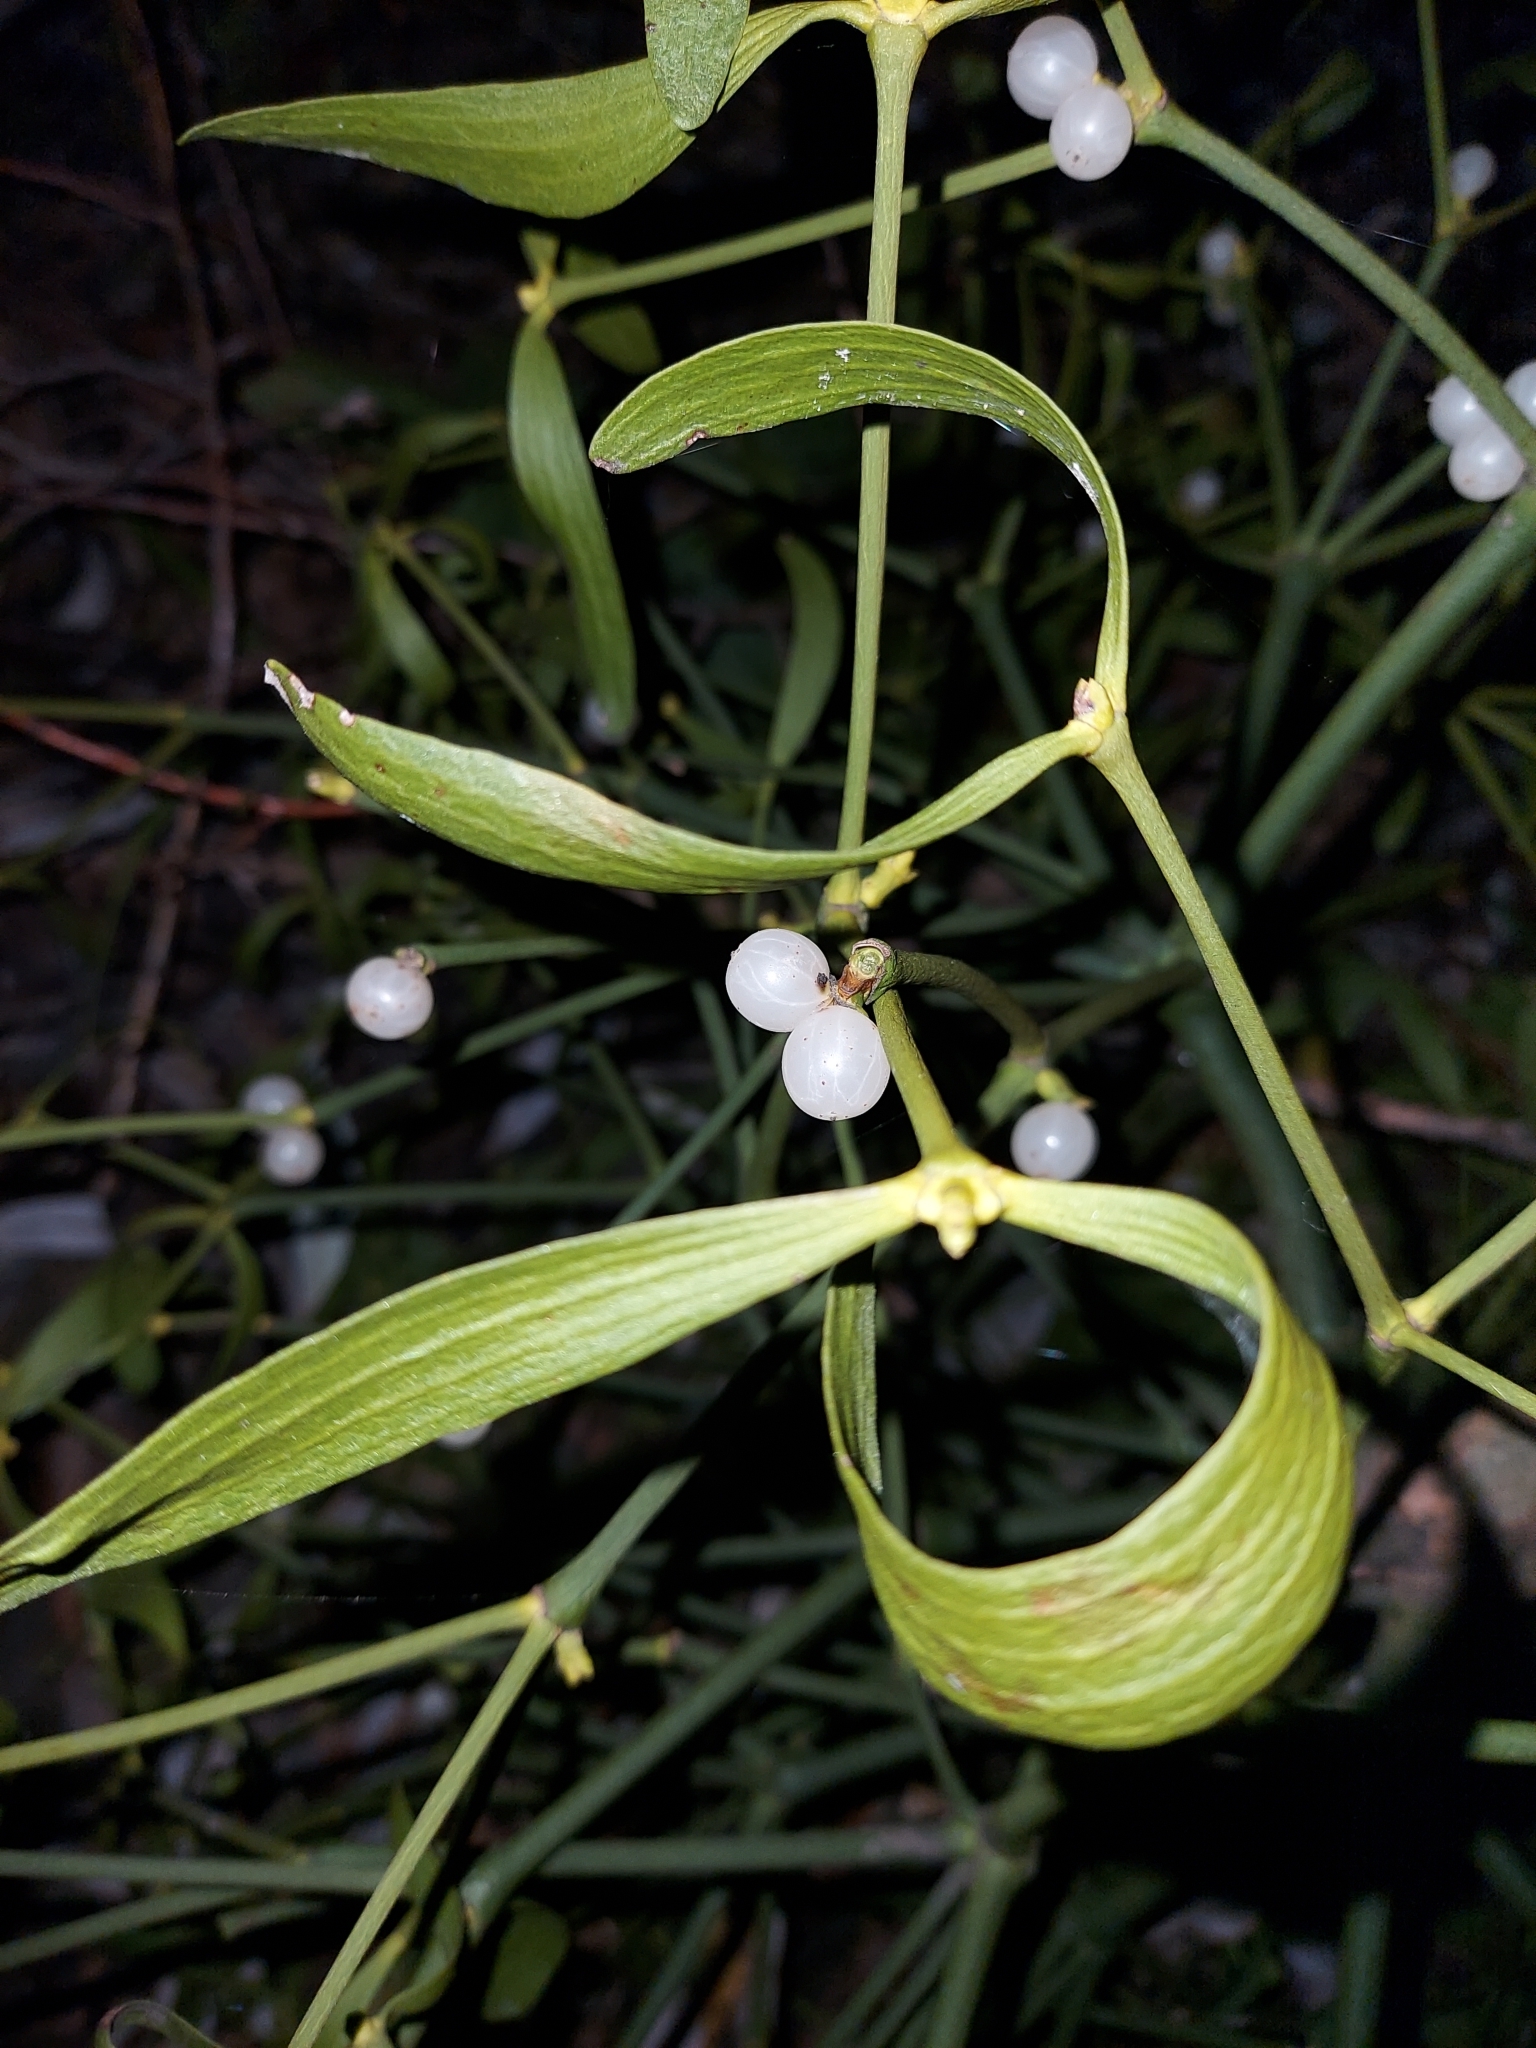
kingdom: Plantae
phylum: Tracheophyta
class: Magnoliopsida
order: Santalales
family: Viscaceae
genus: Viscum
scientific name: Viscum album
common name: Mistletoe
